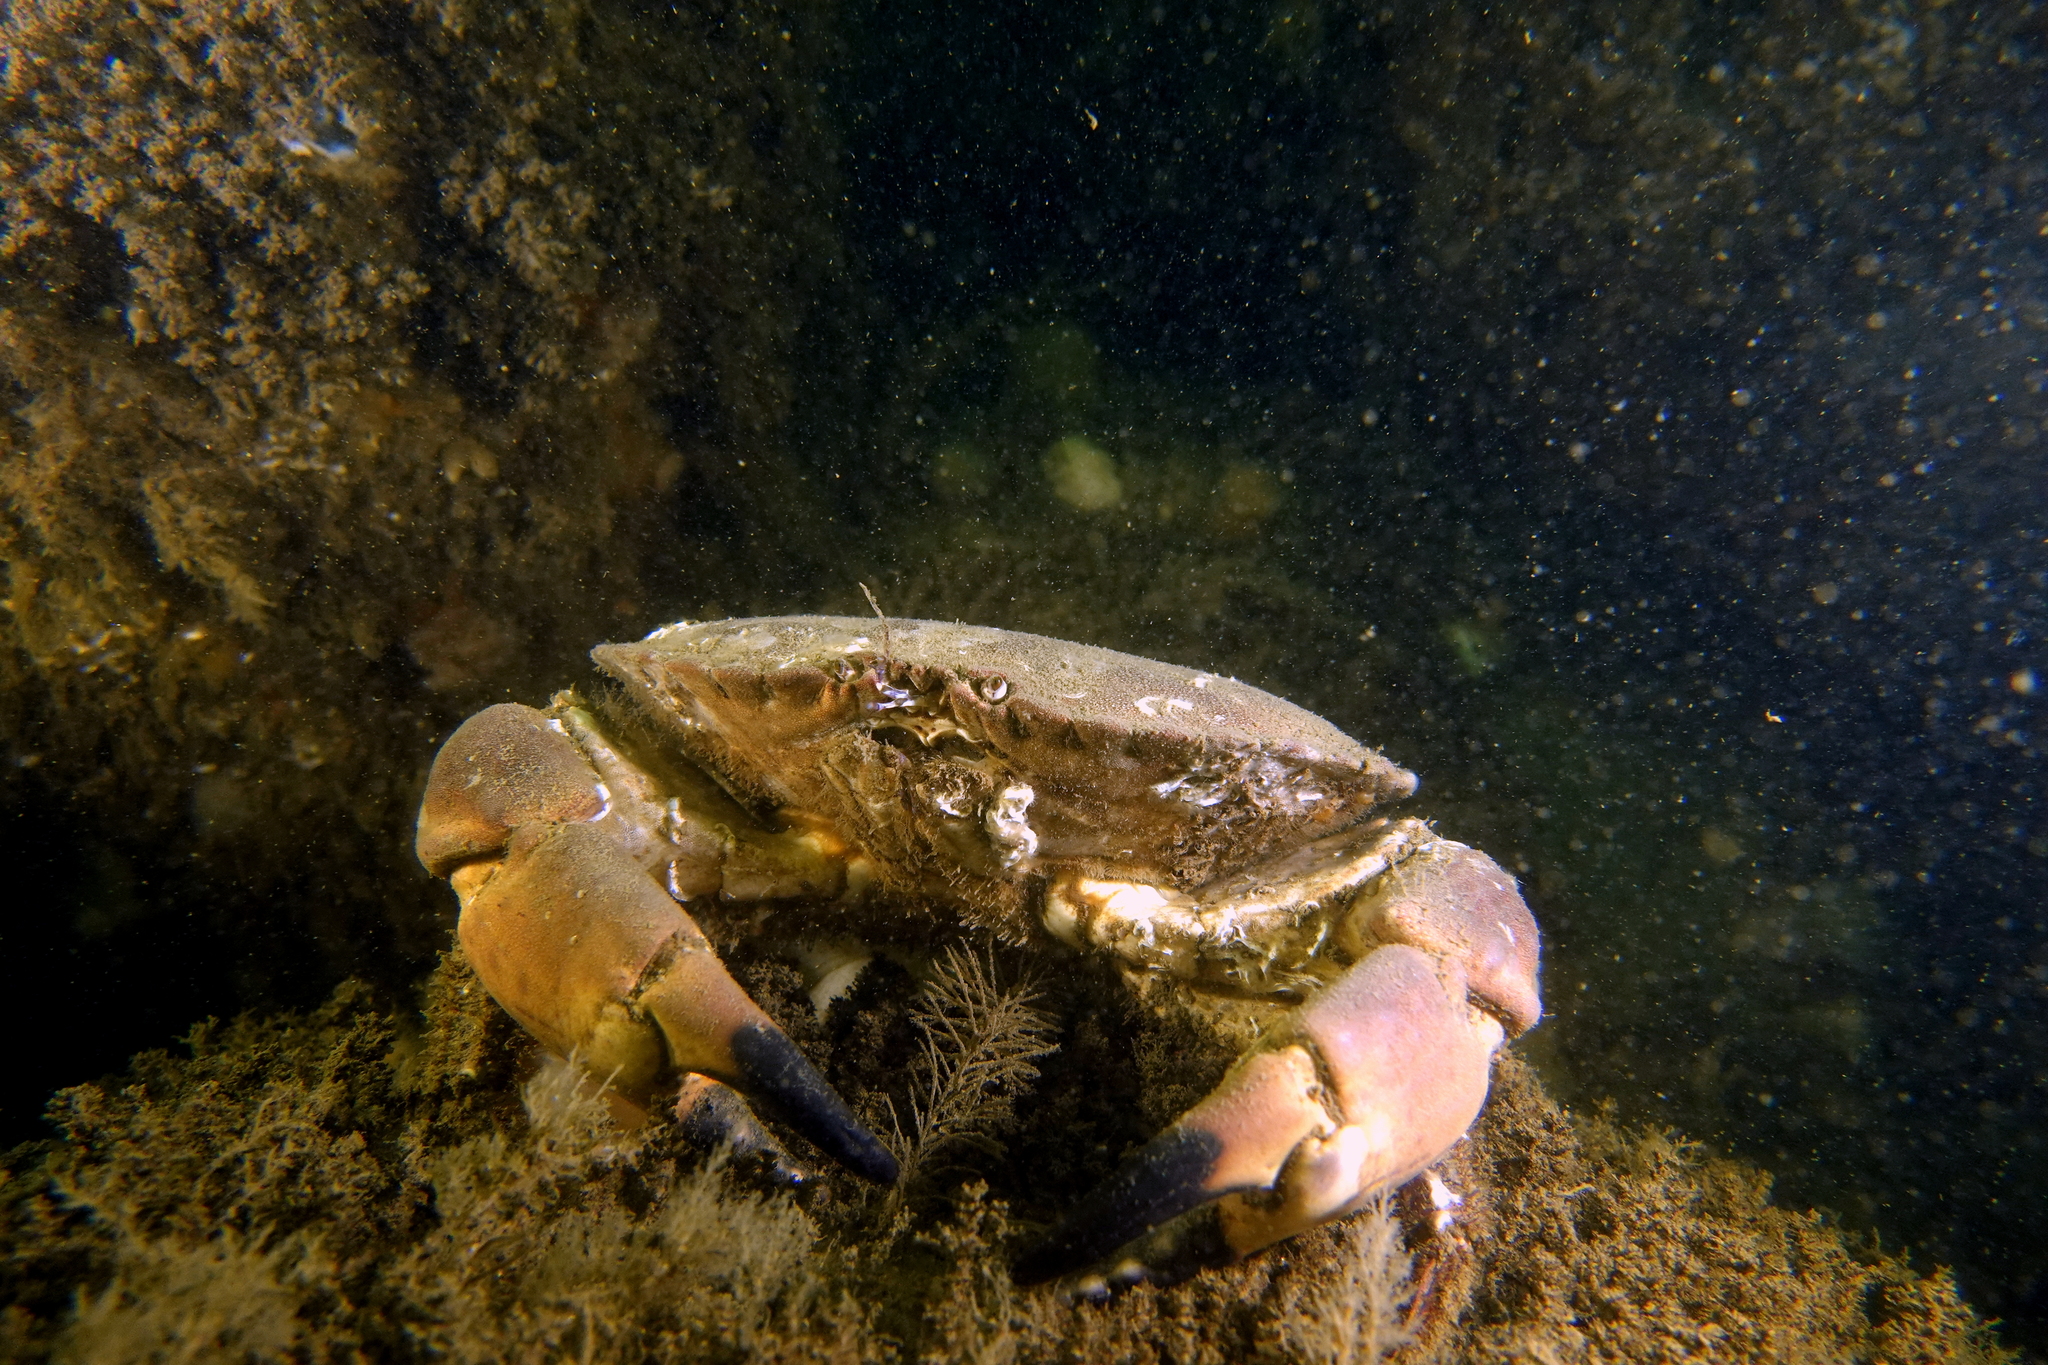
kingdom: Animalia
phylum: Arthropoda
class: Malacostraca
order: Decapoda
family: Cancridae
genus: Cancer
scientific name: Cancer pagurus
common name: Edible crab
